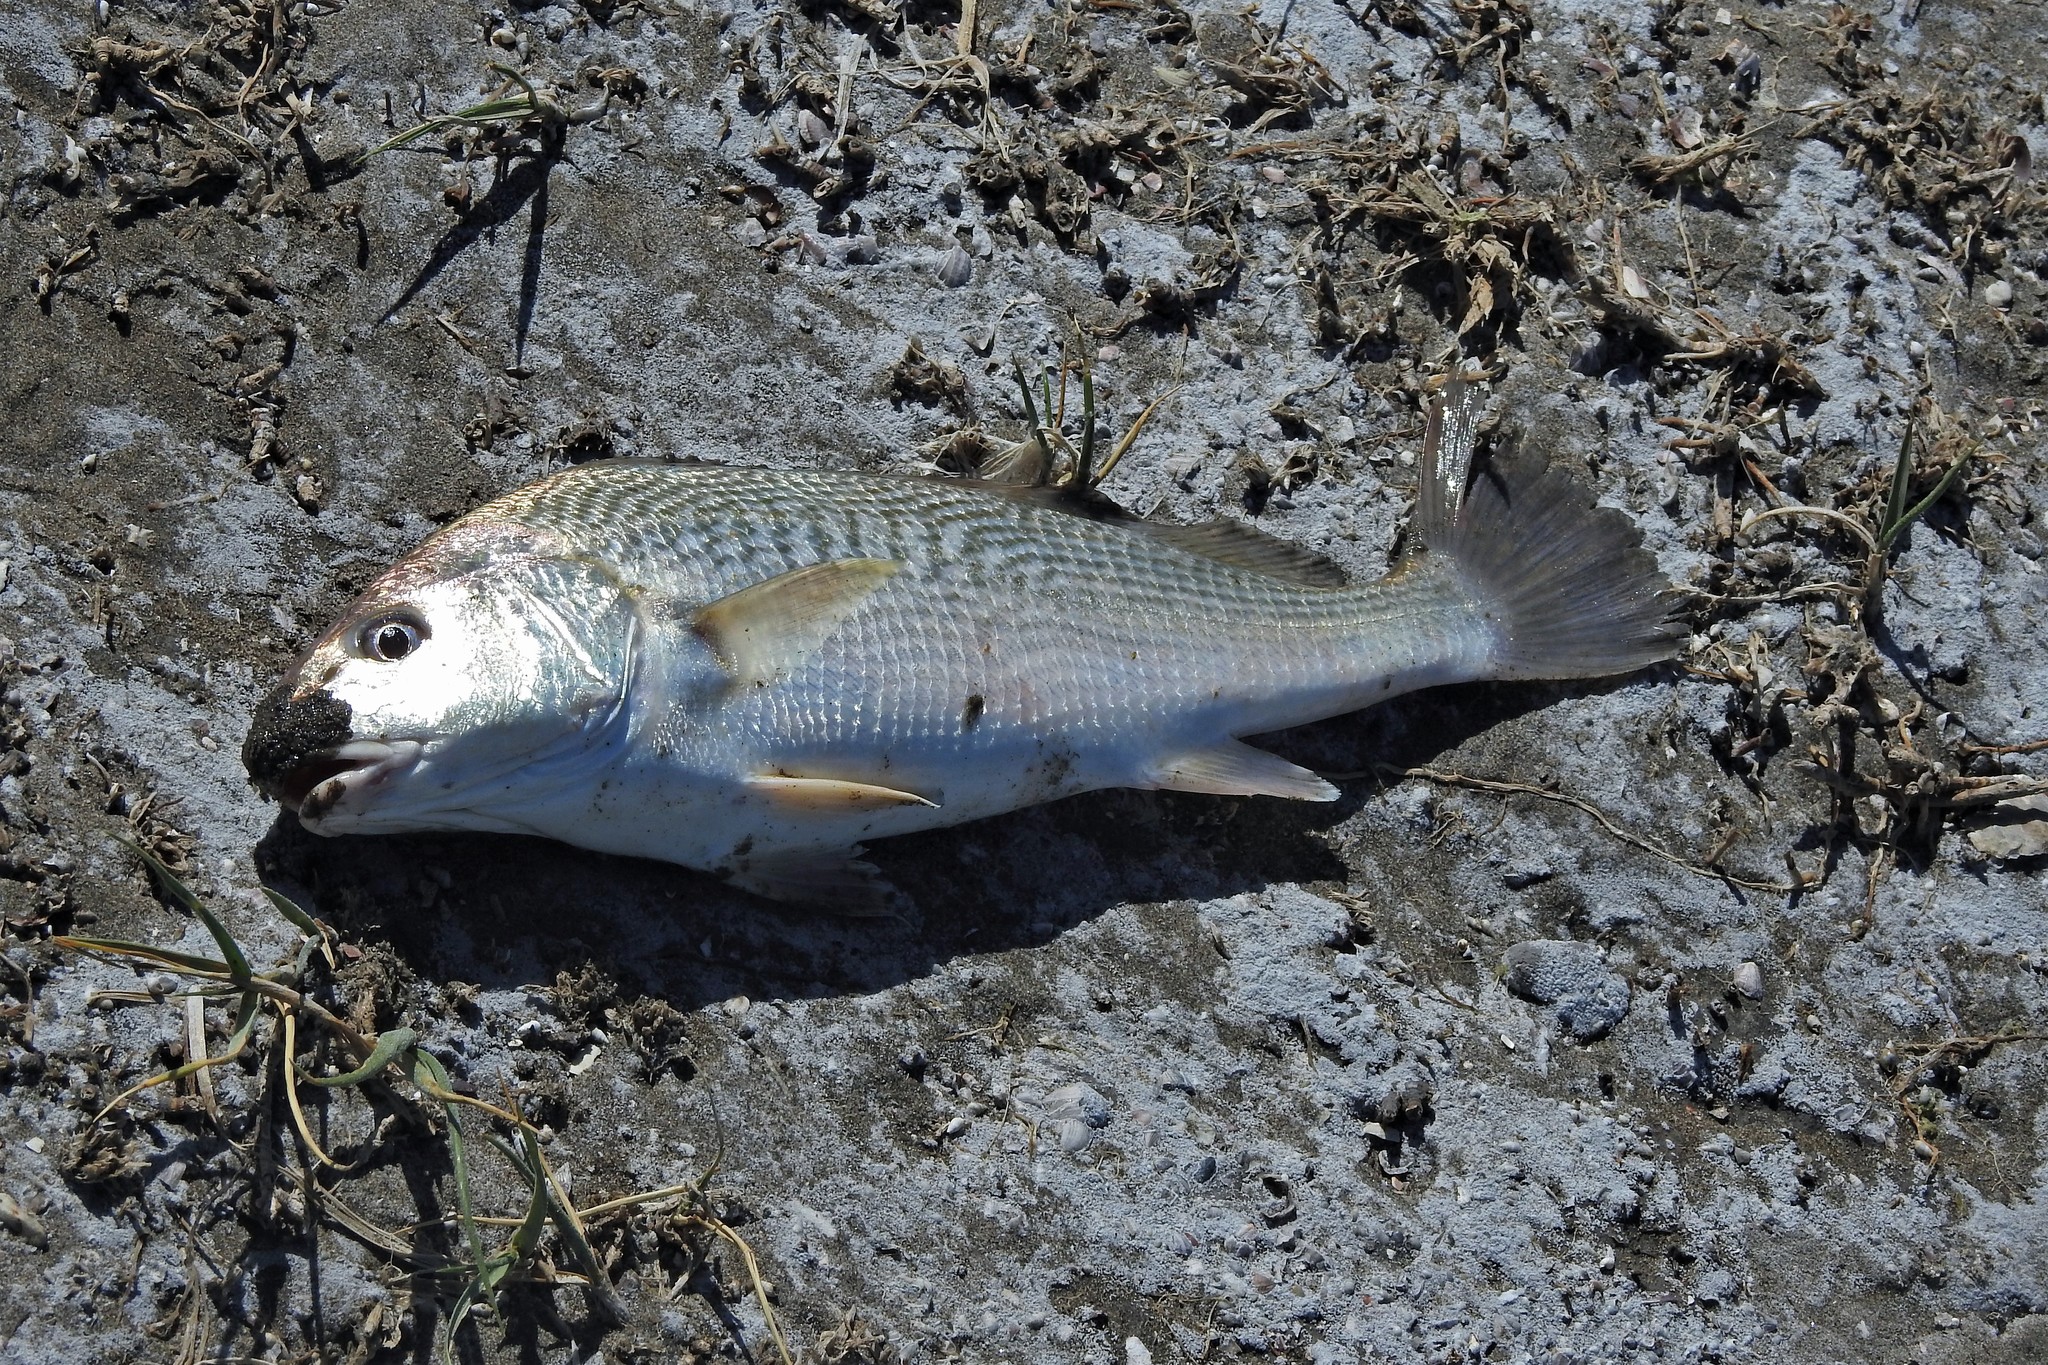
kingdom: Animalia
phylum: Chordata
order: Perciformes
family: Sciaenidae
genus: Micropogonias
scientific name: Micropogonias furnieri
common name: Whitemouth croaker
